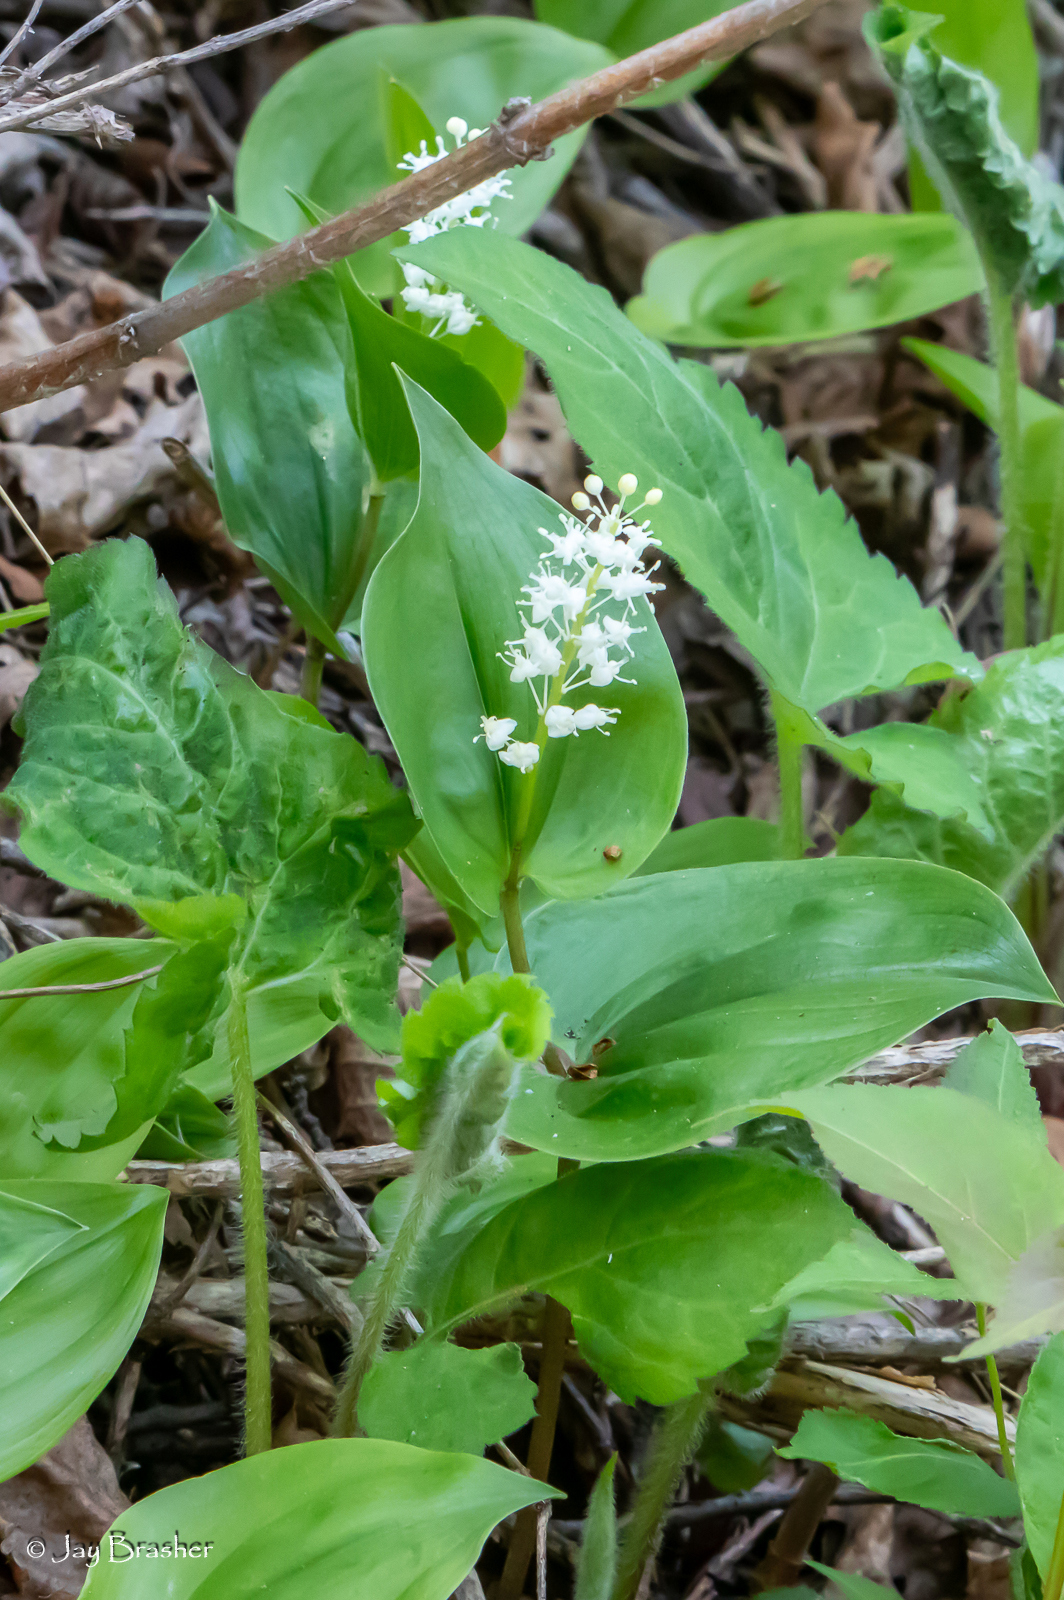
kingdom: Plantae
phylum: Tracheophyta
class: Liliopsida
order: Asparagales
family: Asparagaceae
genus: Maianthemum
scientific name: Maianthemum canadense
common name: False lily-of-the-valley
